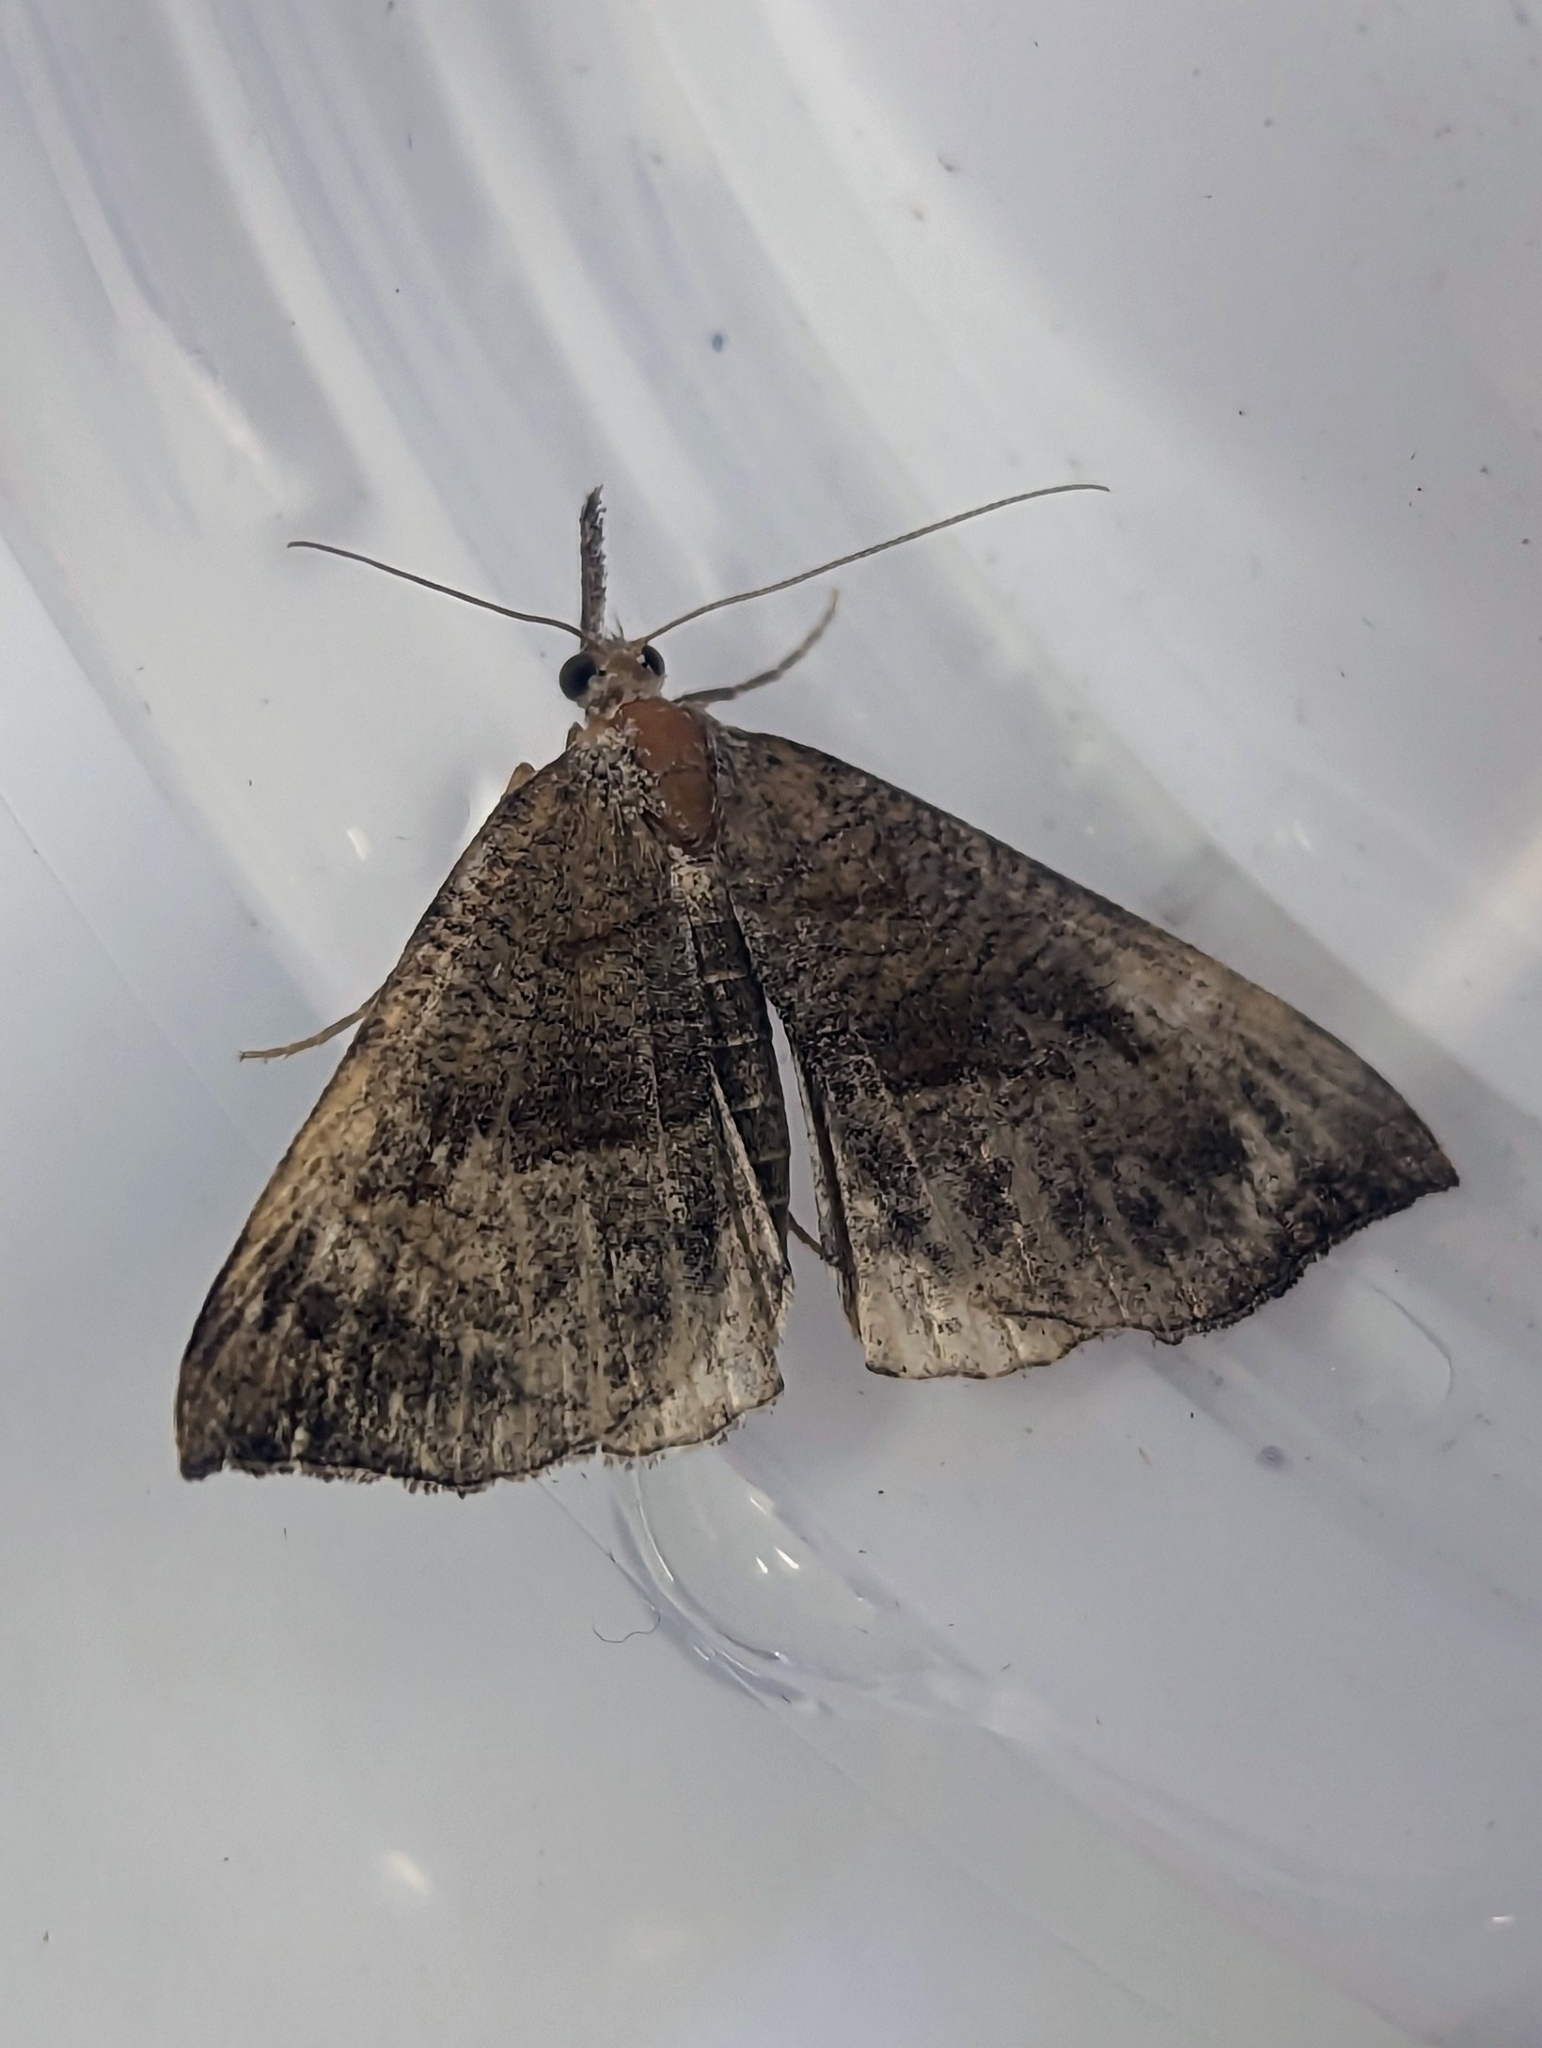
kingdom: Animalia
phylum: Arthropoda
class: Insecta
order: Lepidoptera
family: Erebidae
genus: Hypena
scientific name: Hypena proboscidalis
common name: Snout
